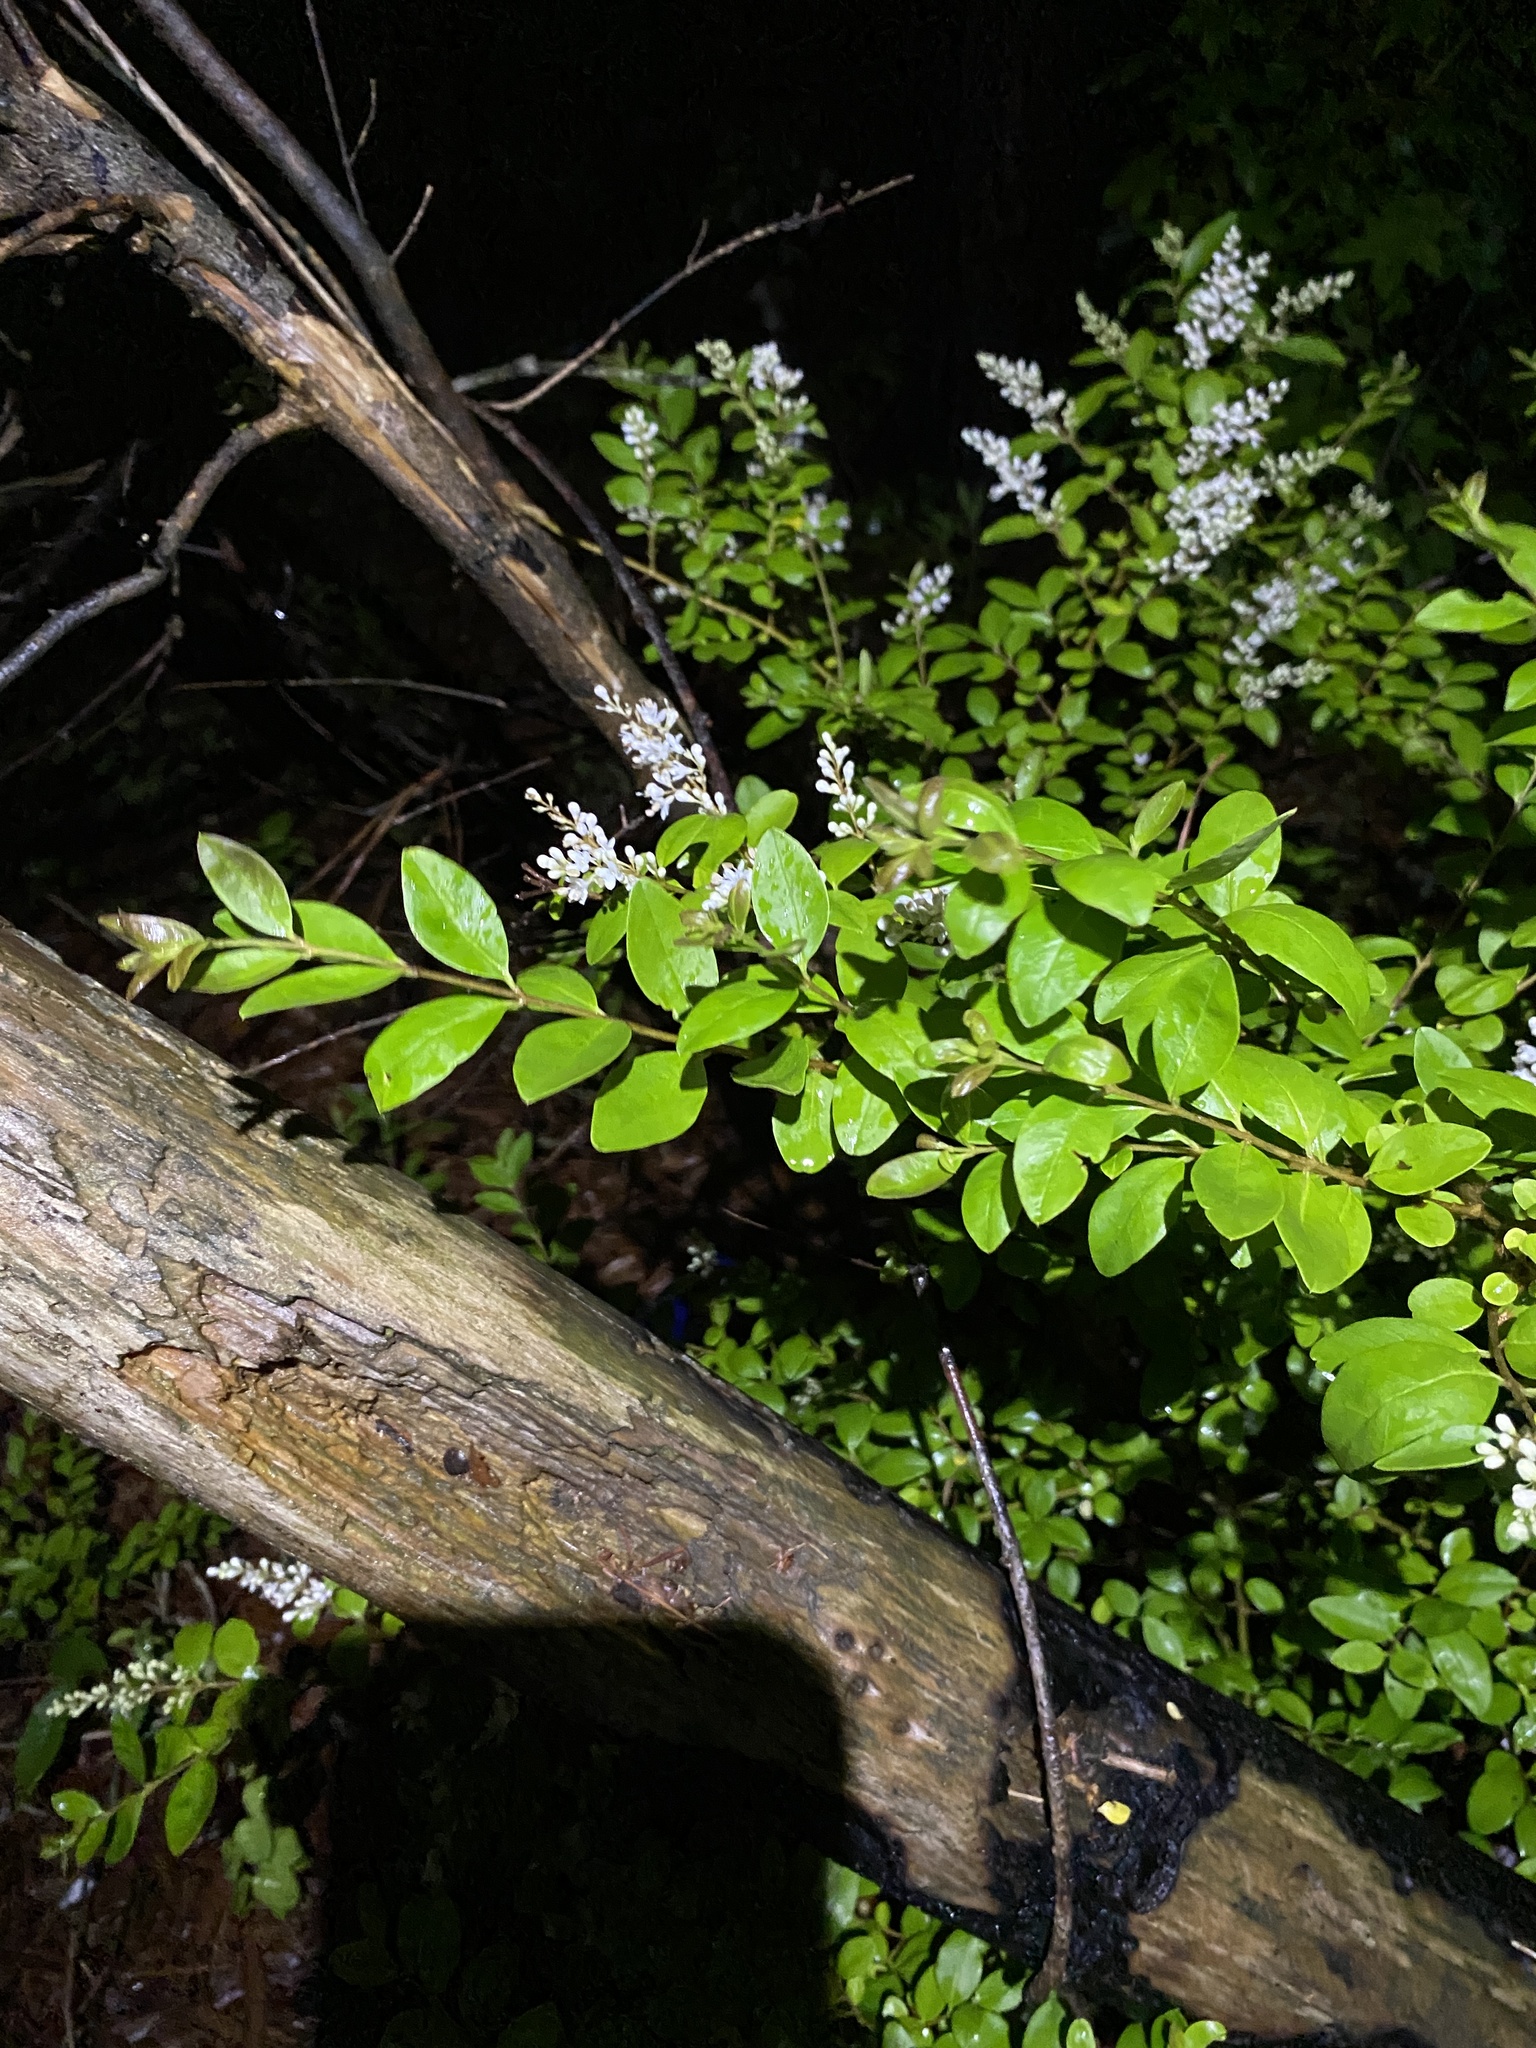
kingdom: Plantae
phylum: Tracheophyta
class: Magnoliopsida
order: Lamiales
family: Oleaceae
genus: Ligustrum
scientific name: Ligustrum sinense
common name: Chinese privet
